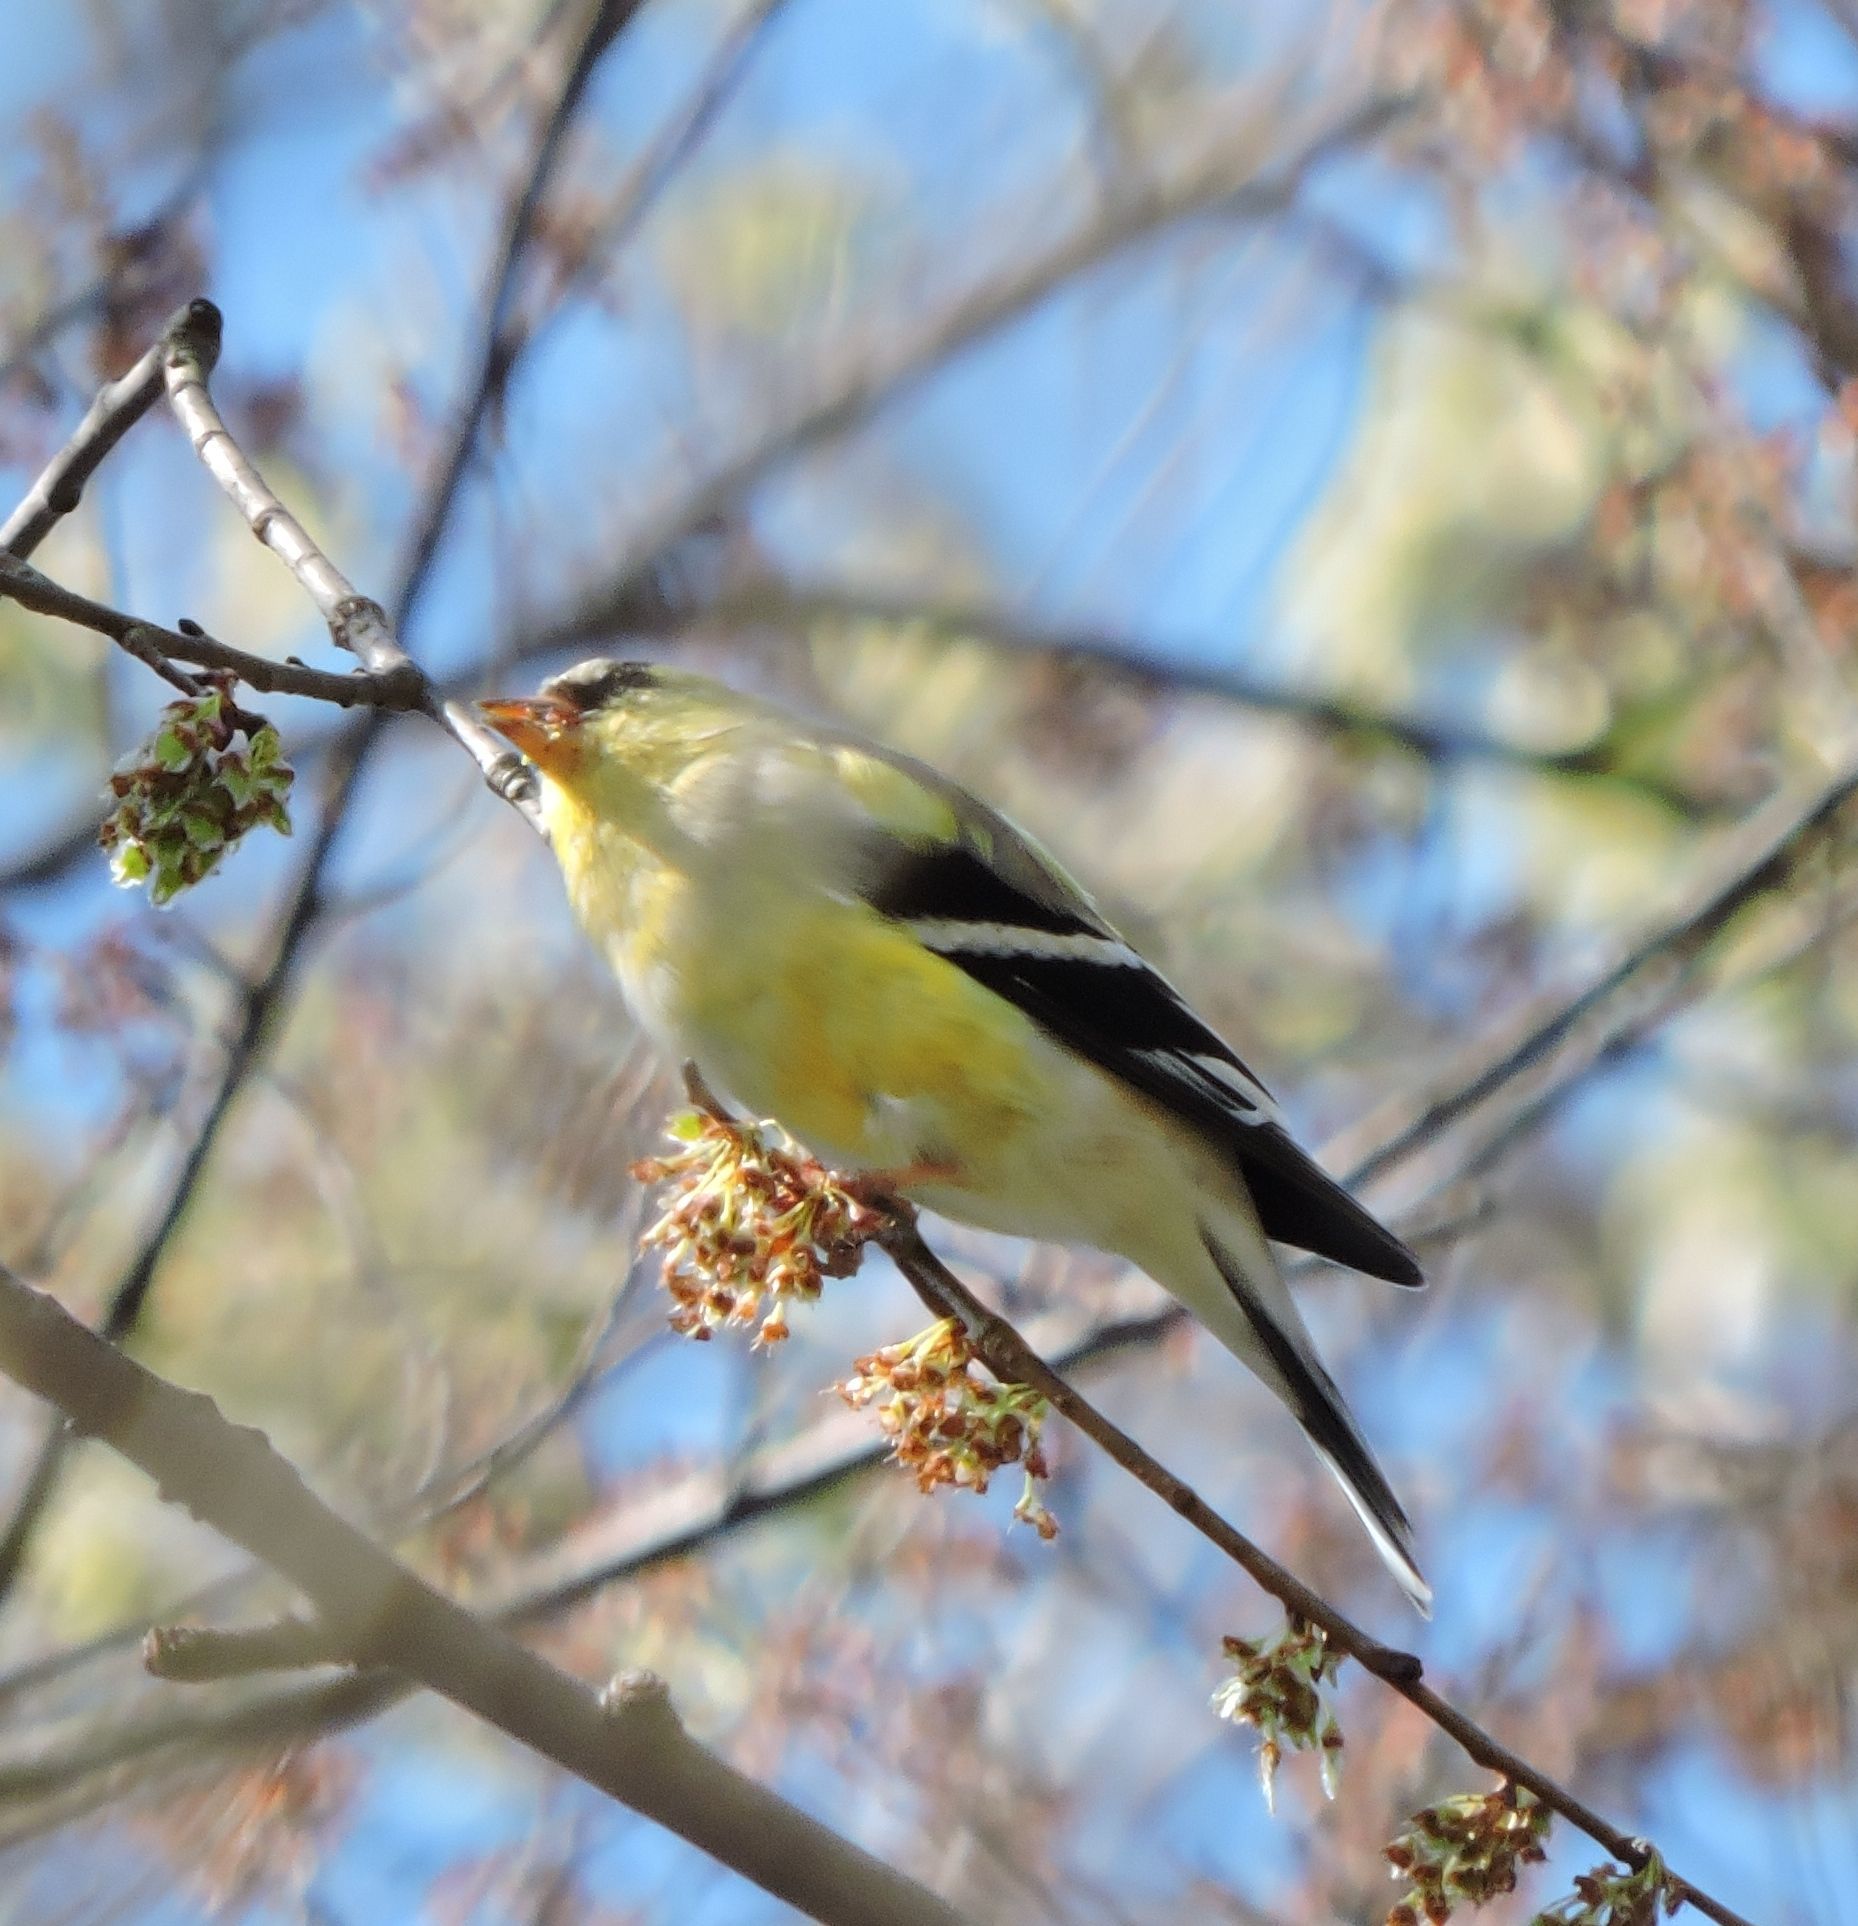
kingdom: Animalia
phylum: Chordata
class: Aves
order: Passeriformes
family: Fringillidae
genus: Spinus
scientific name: Spinus tristis
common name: American goldfinch
